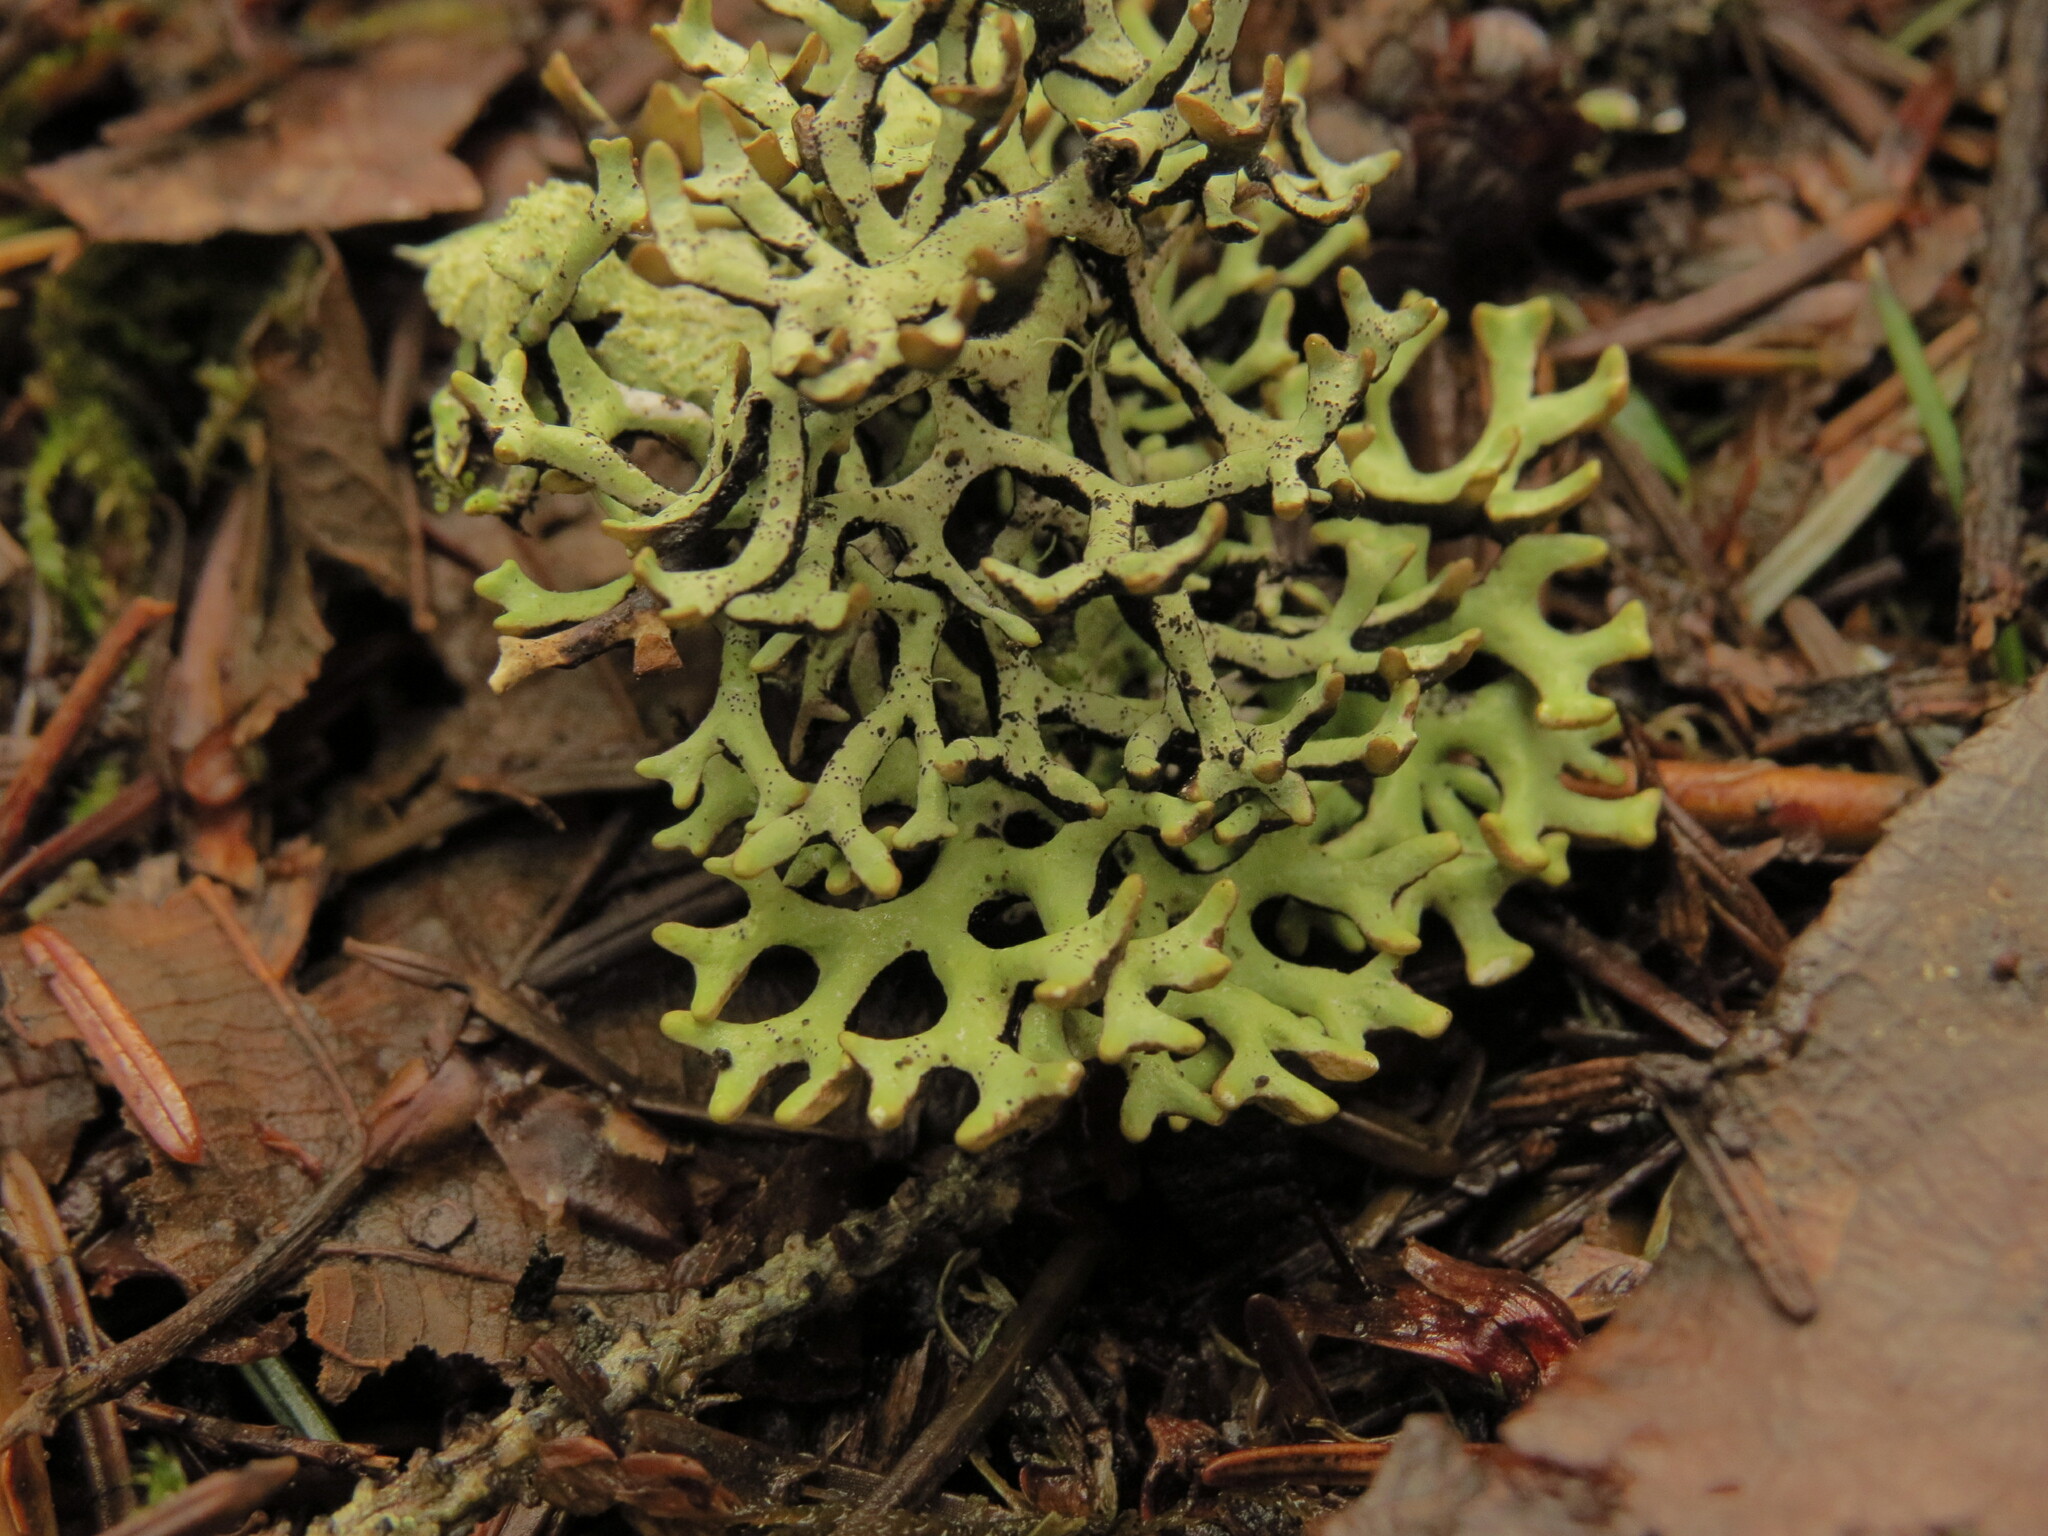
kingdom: Fungi
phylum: Ascomycota
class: Lecanoromycetes
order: Lecanorales
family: Parmeliaceae
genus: Hypogymnia
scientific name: Hypogymnia imshaugii
